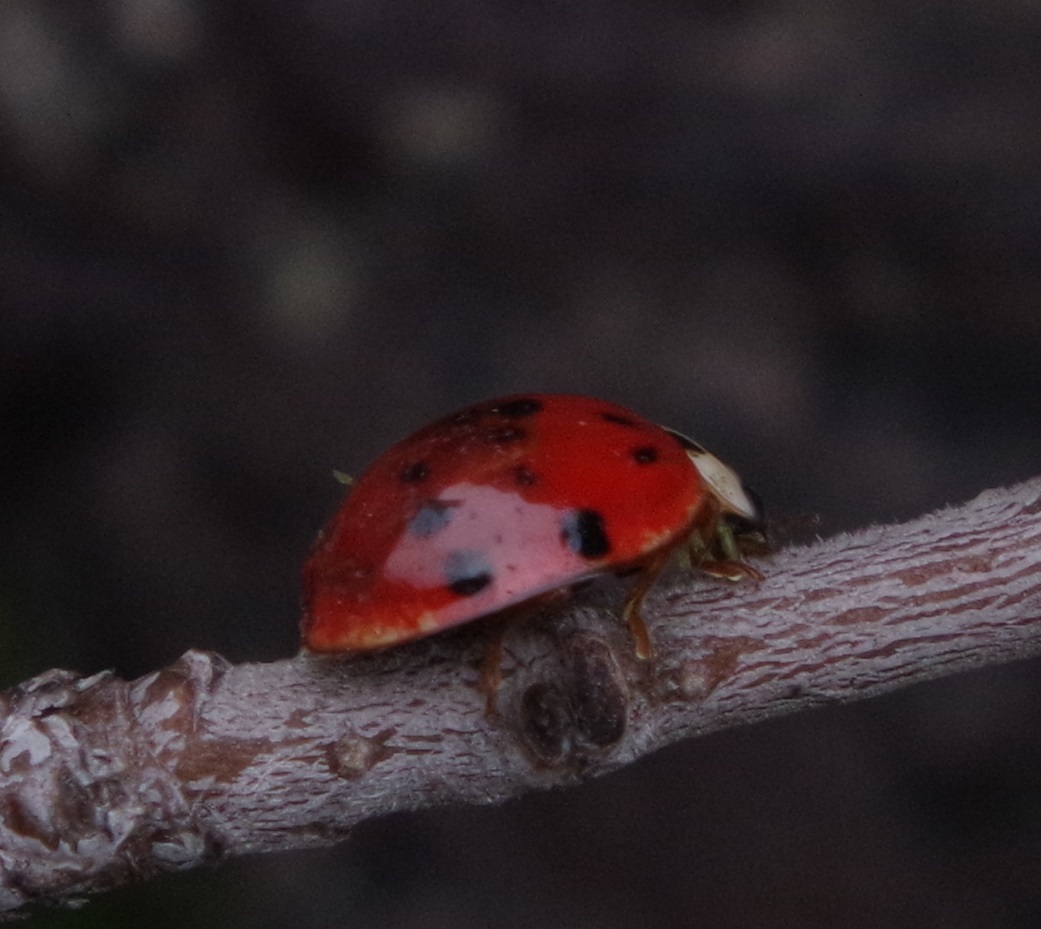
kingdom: Animalia
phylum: Arthropoda
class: Insecta
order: Coleoptera
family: Coccinellidae
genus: Harmonia
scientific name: Harmonia axyridis
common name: Harlequin ladybird
